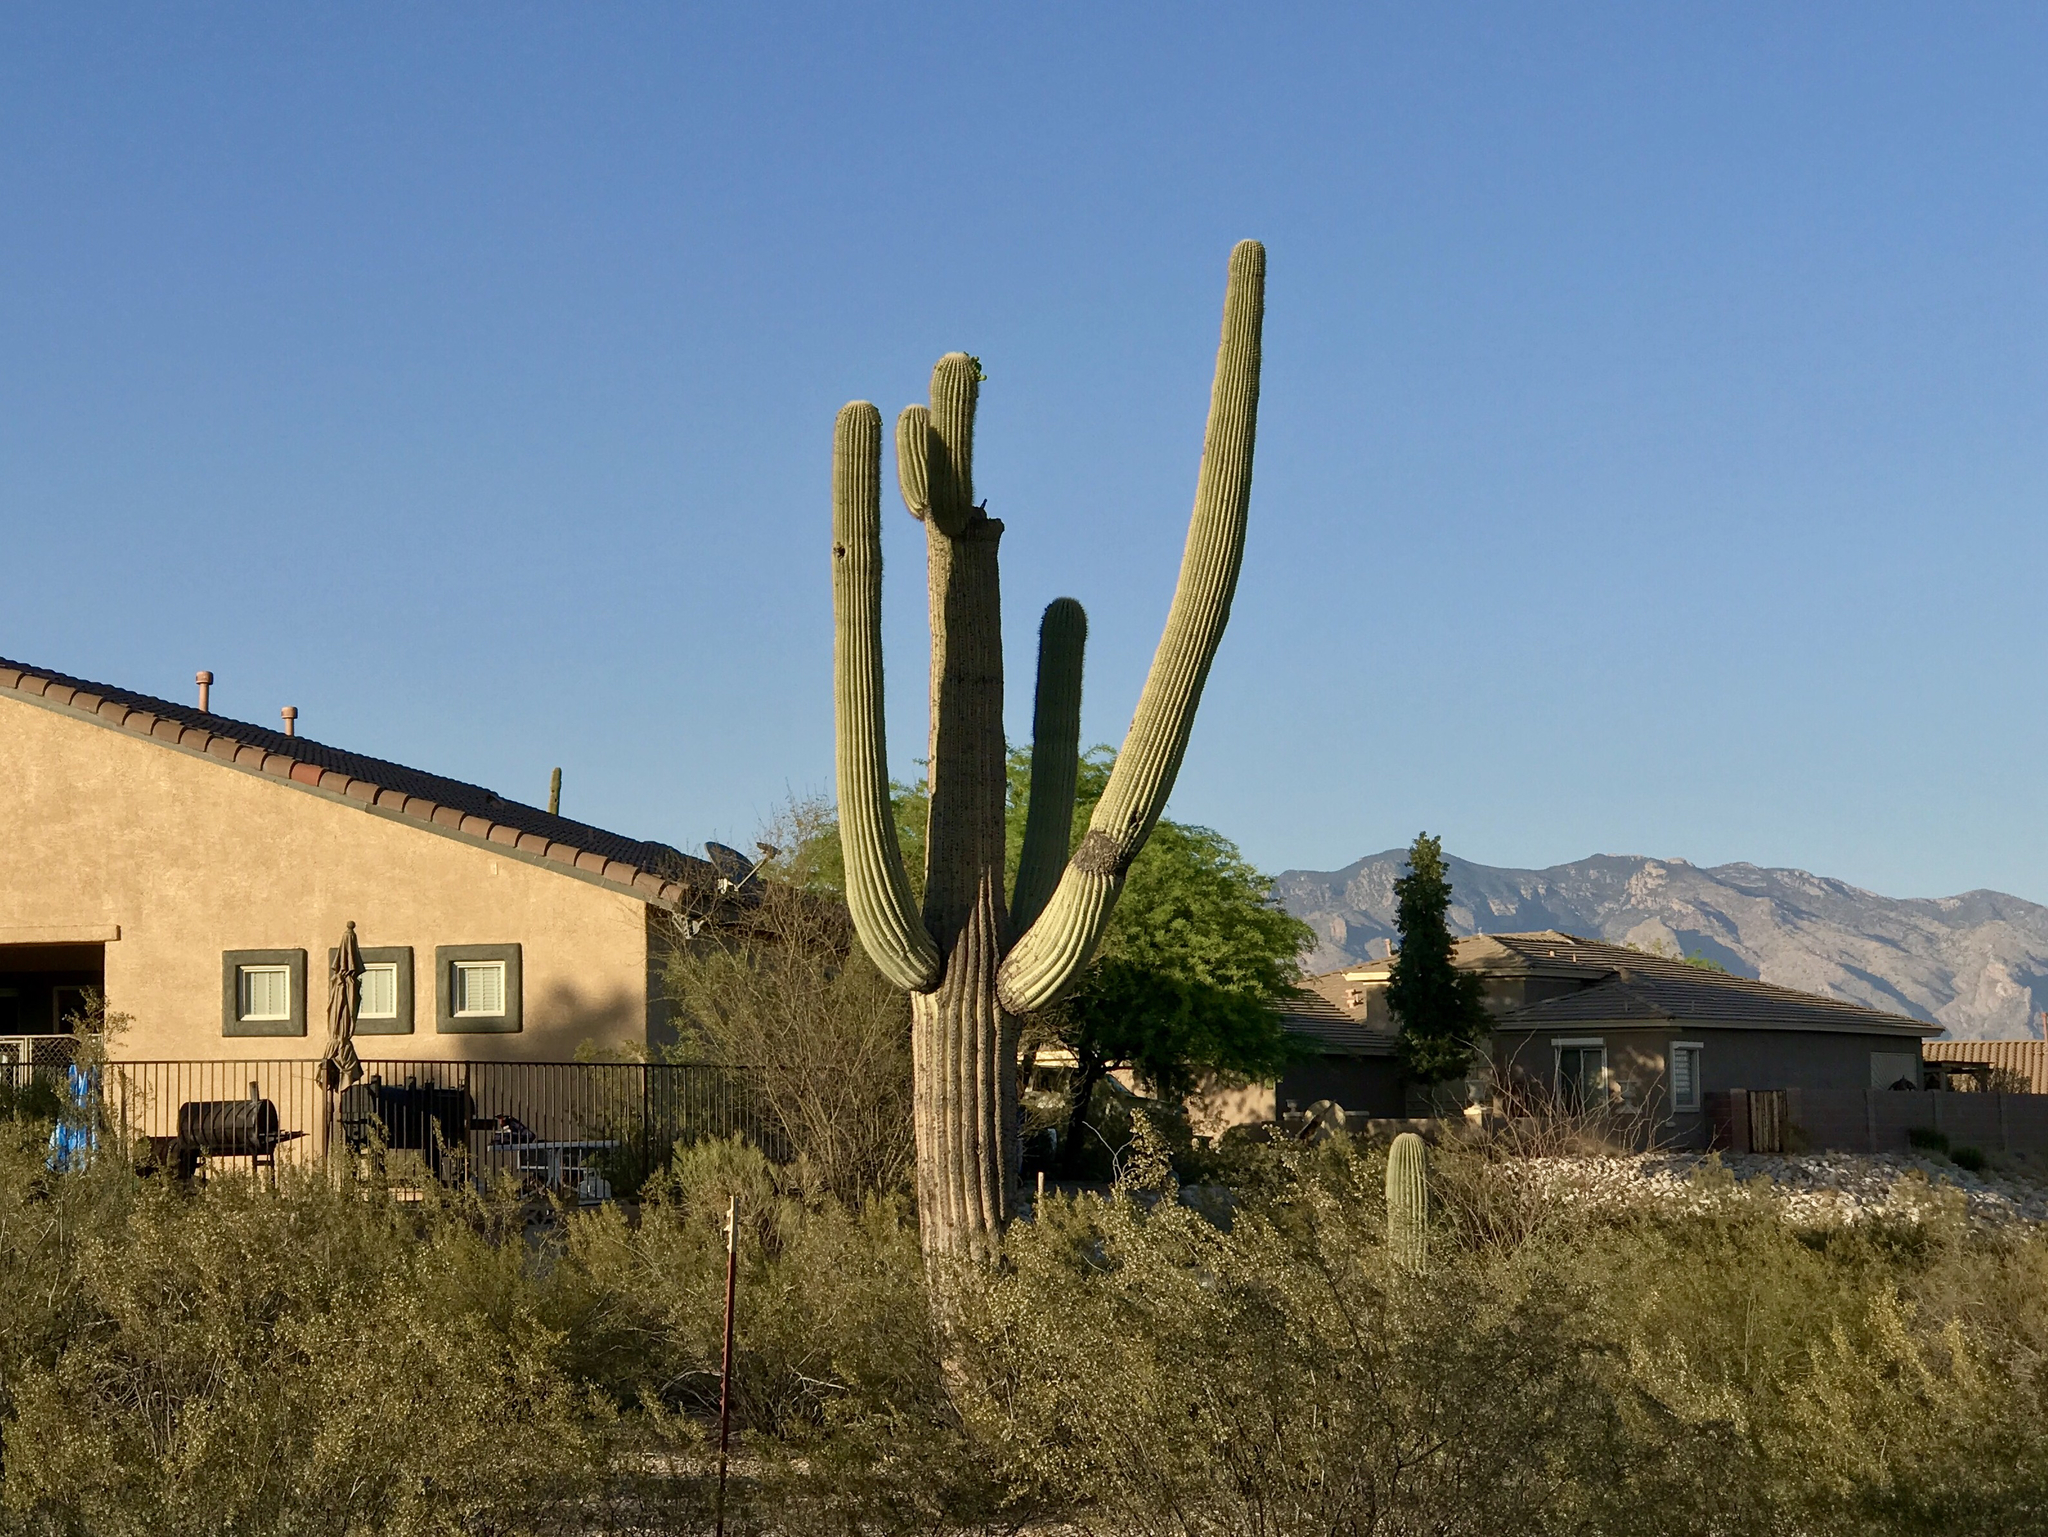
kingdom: Plantae
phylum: Tracheophyta
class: Magnoliopsida
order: Caryophyllales
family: Cactaceae
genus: Carnegiea
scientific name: Carnegiea gigantea
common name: Saguaro
